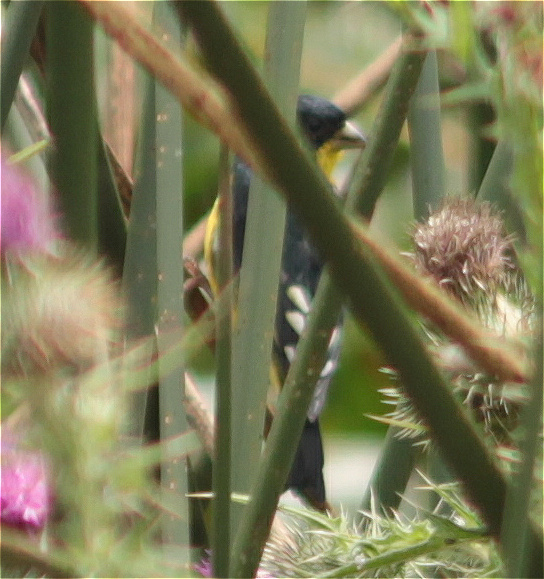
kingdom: Animalia
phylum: Chordata
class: Aves
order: Passeriformes
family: Fringillidae
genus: Spinus
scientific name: Spinus psaltria
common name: Lesser goldfinch
